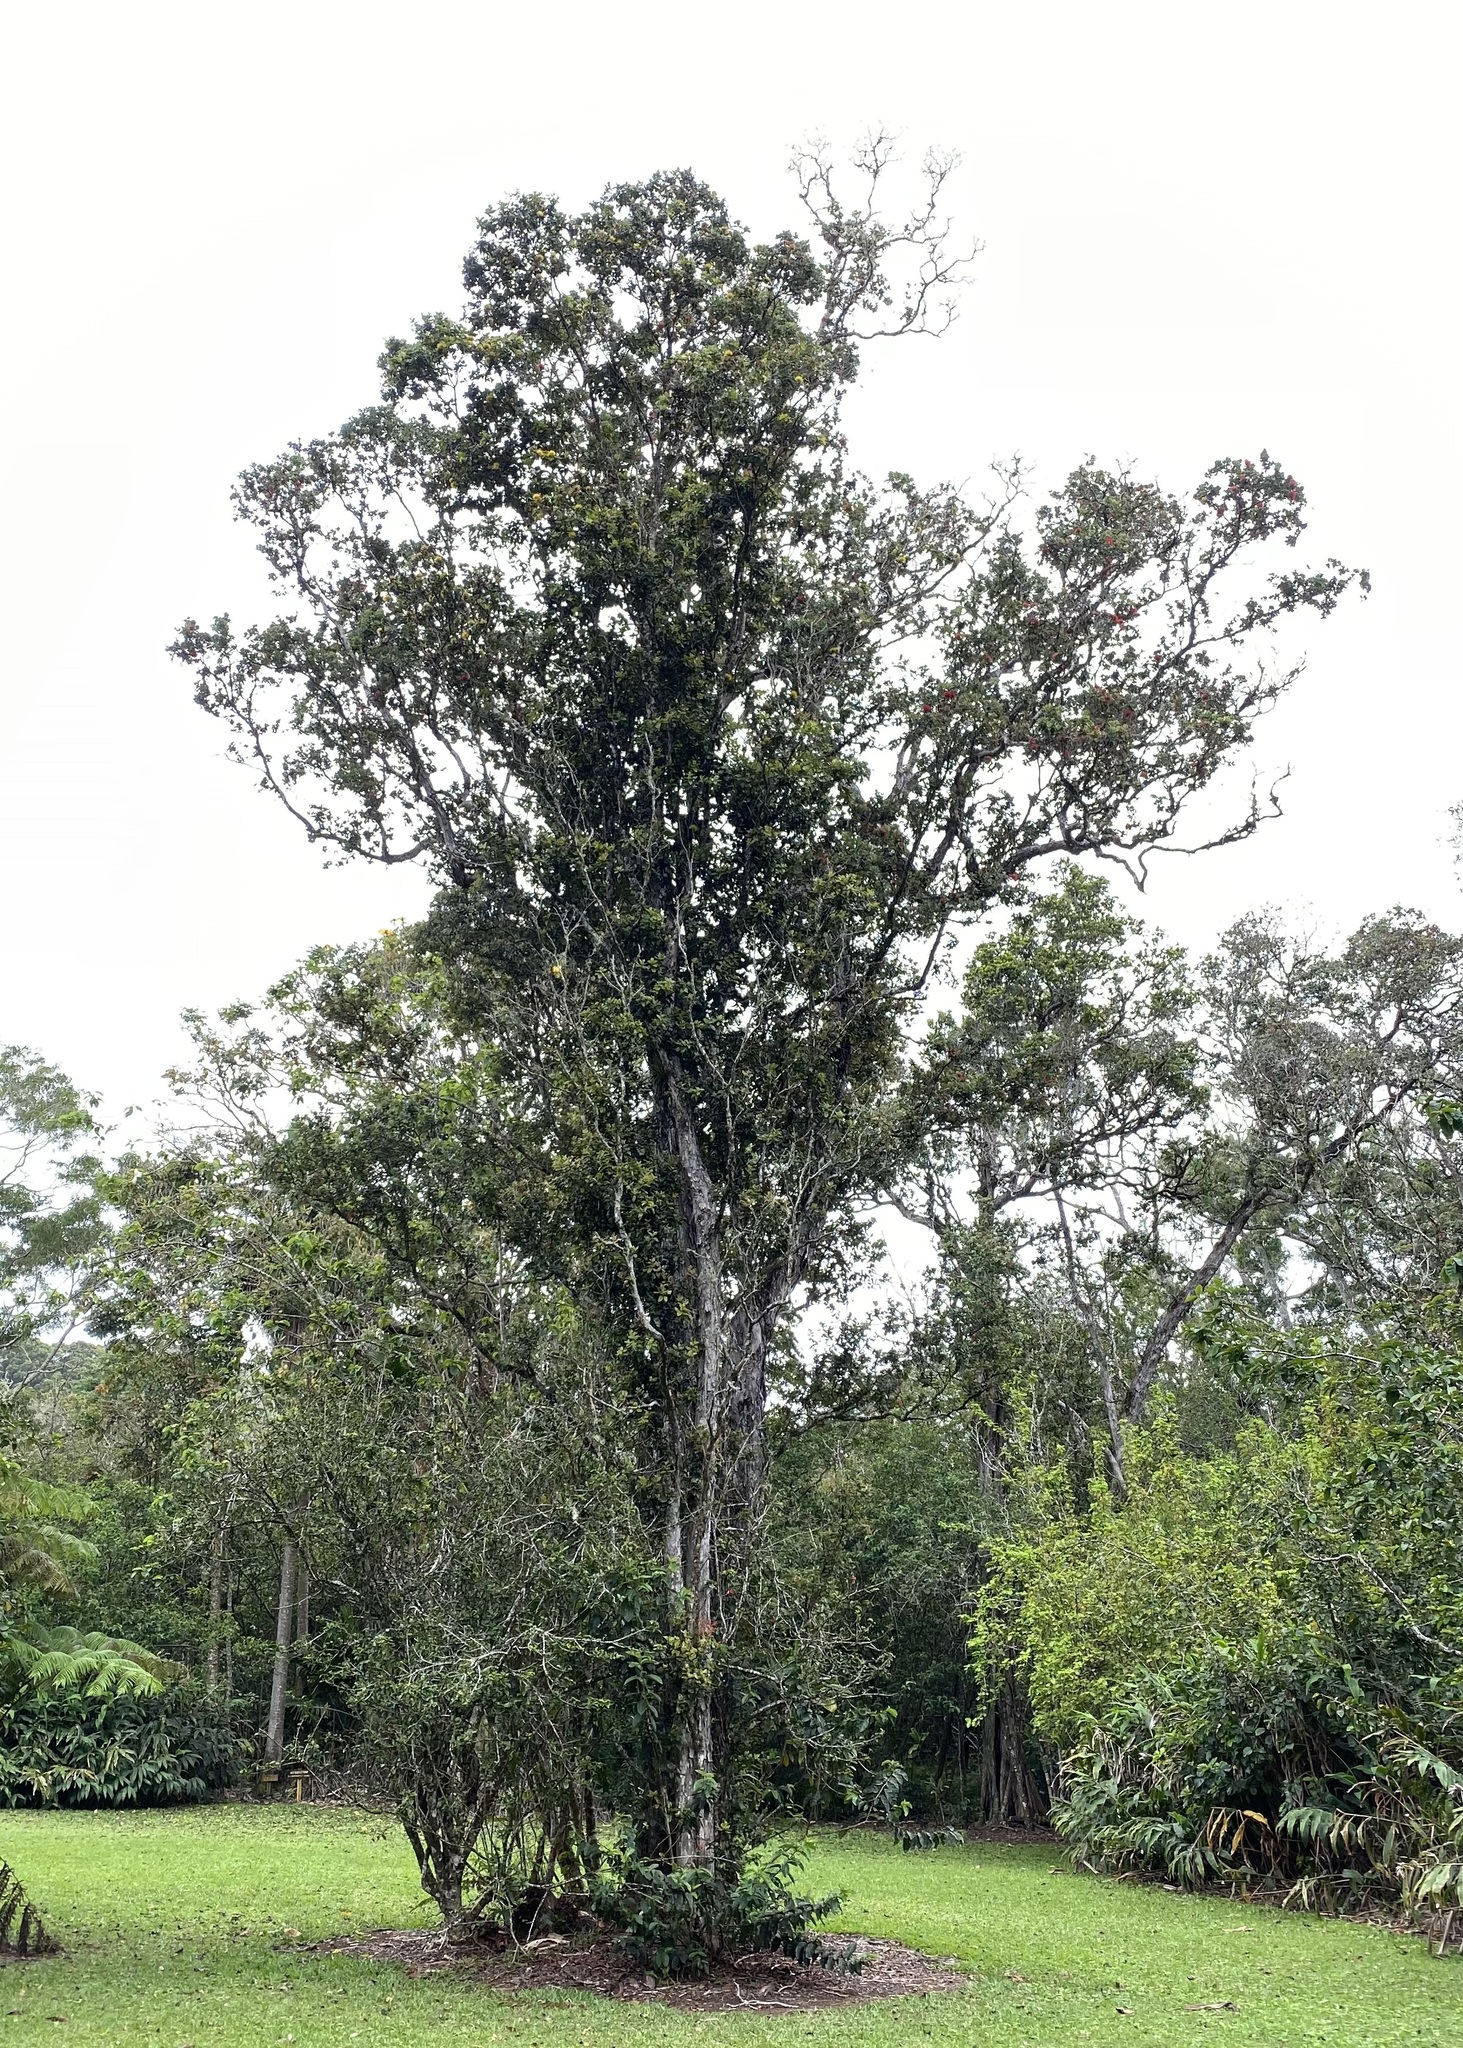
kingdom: Plantae
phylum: Tracheophyta
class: Magnoliopsida
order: Myrtales
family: Myrtaceae
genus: Metrosideros
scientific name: Metrosideros polymorpha
